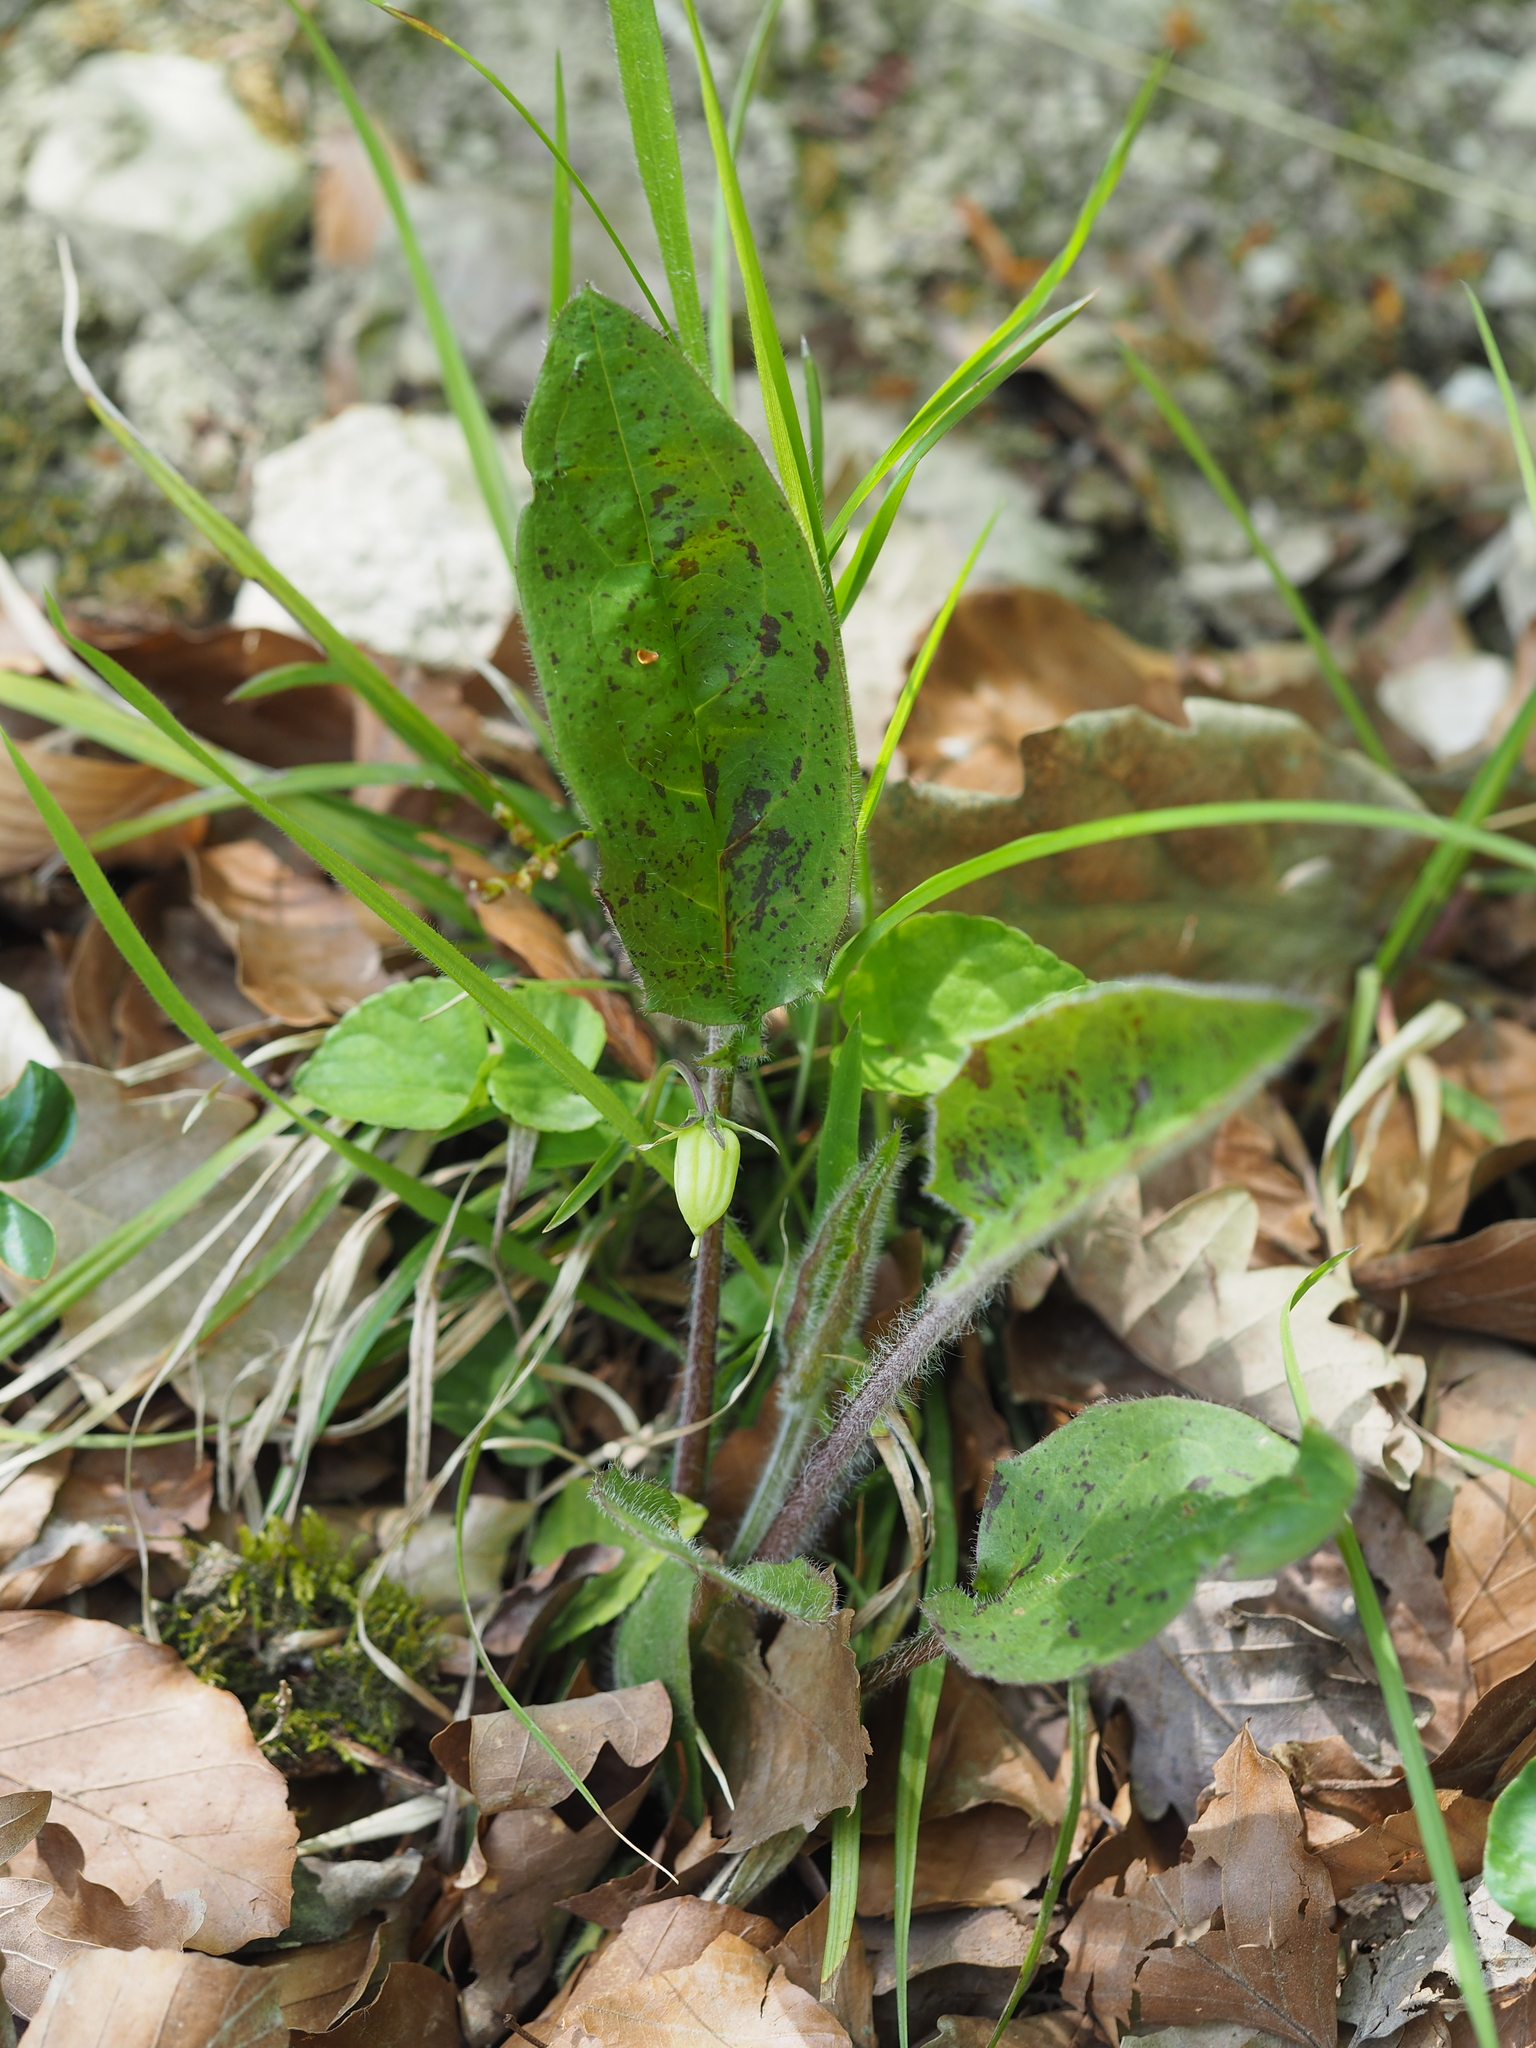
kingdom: Plantae
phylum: Tracheophyta
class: Magnoliopsida
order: Asterales
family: Asteraceae
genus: Hieracium
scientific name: Hieracium murorum
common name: Wall hawkweed
